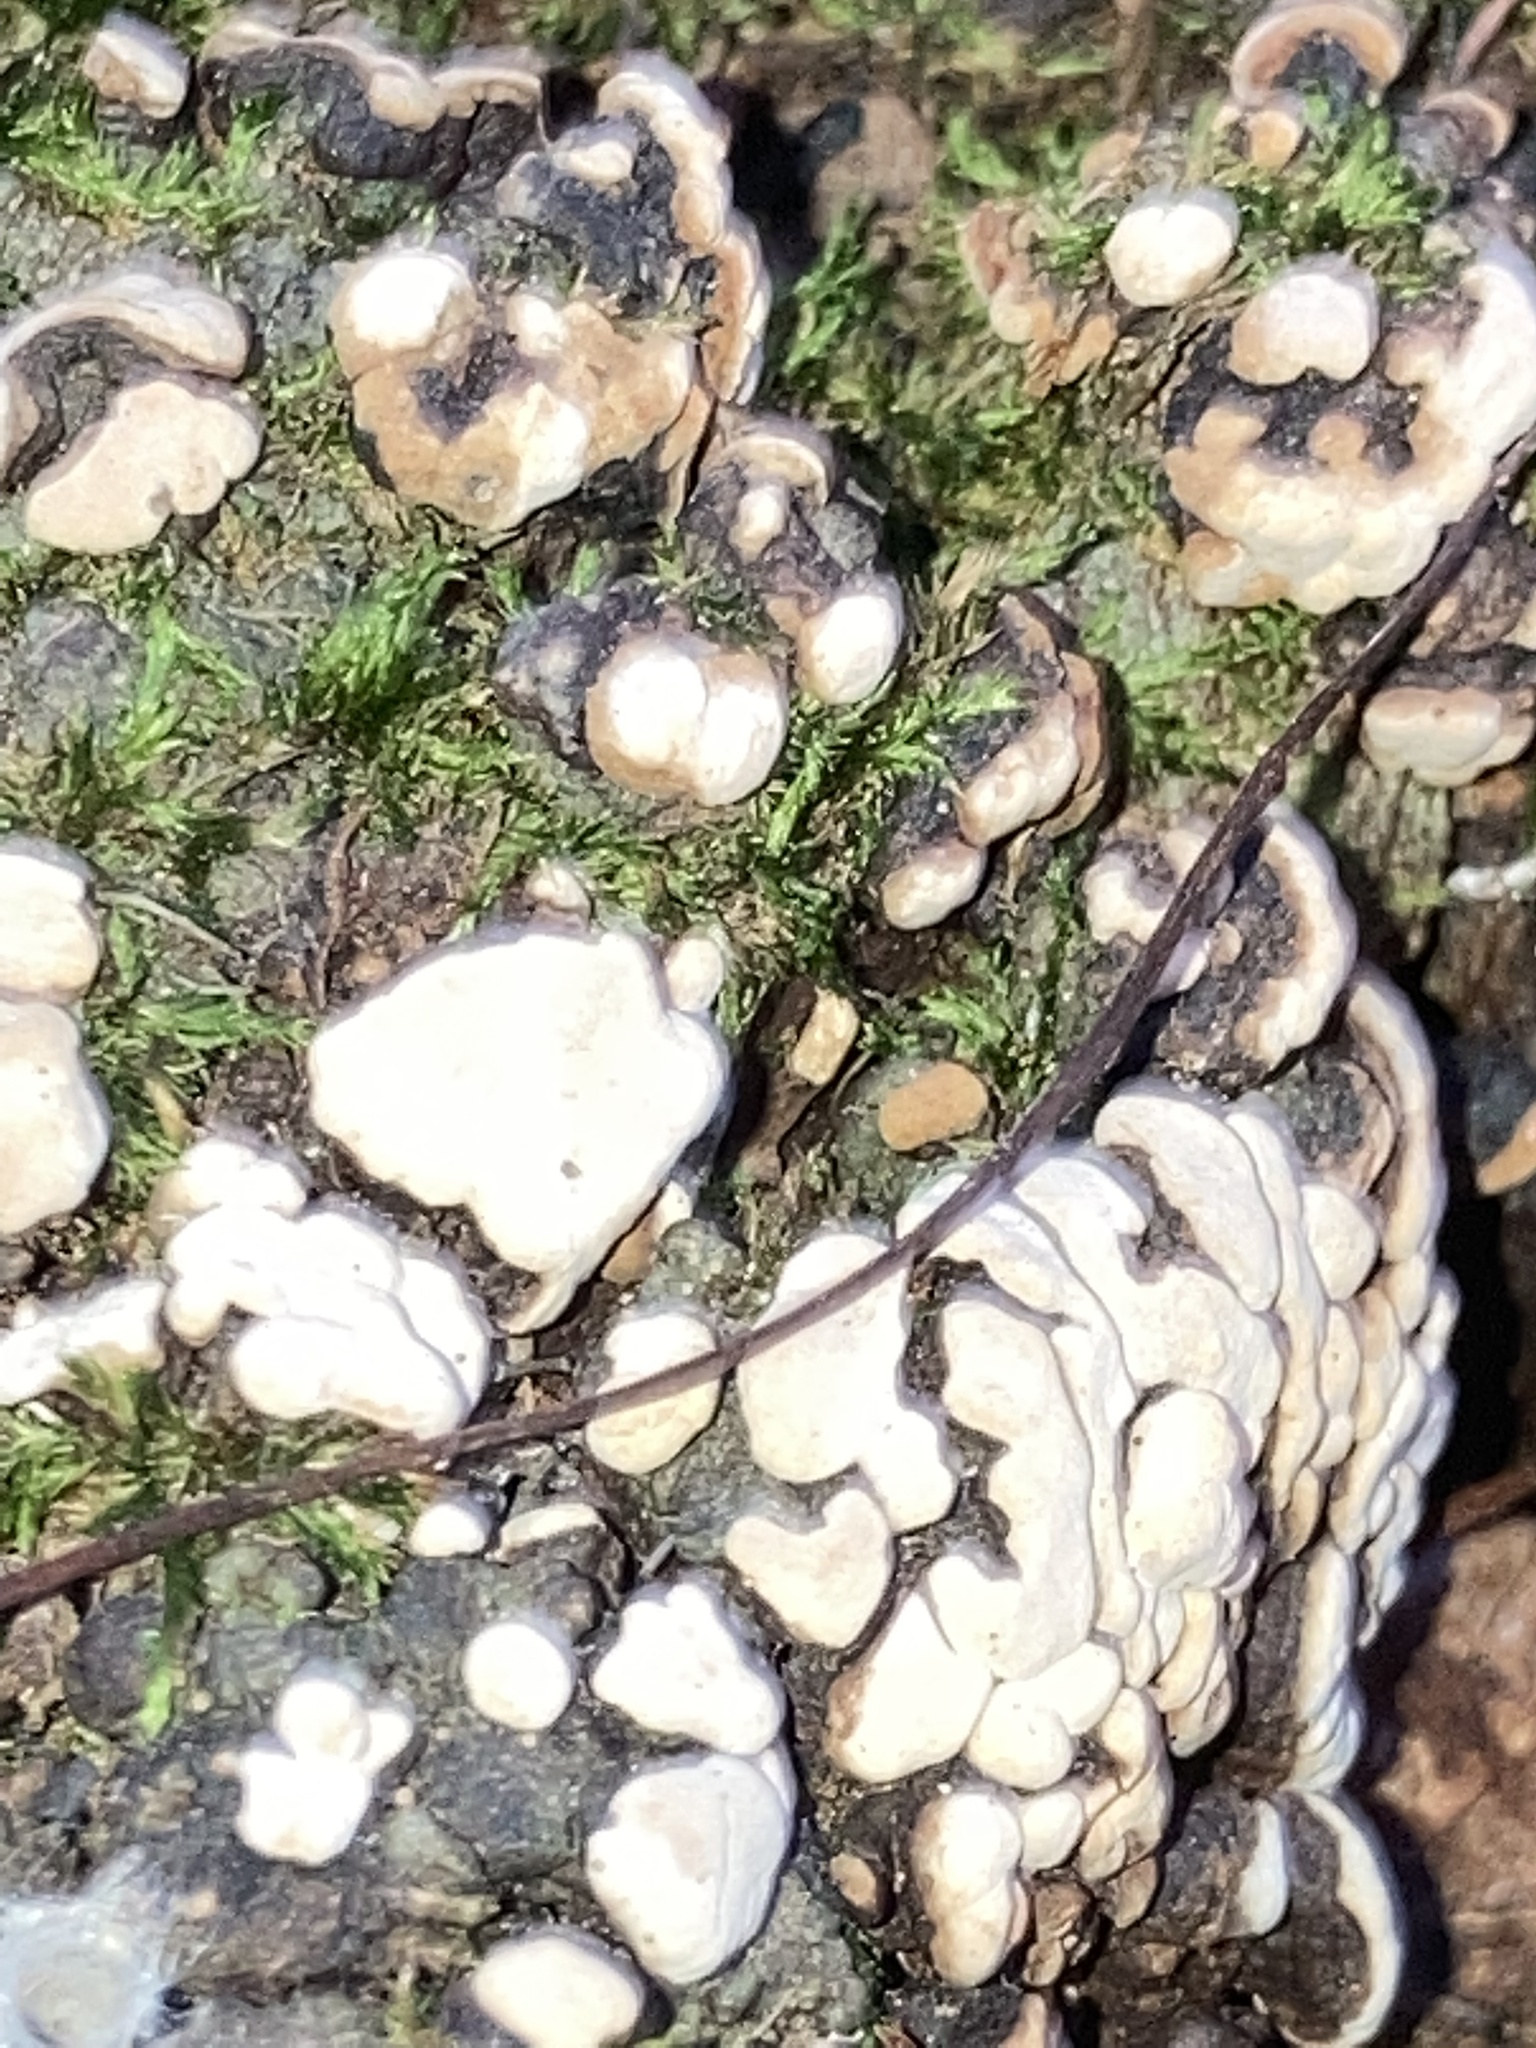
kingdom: Fungi
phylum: Basidiomycota
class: Agaricomycetes
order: Russulales
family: Stereaceae
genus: Xylobolus
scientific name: Xylobolus frustulatus
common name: Ceramic parchment
